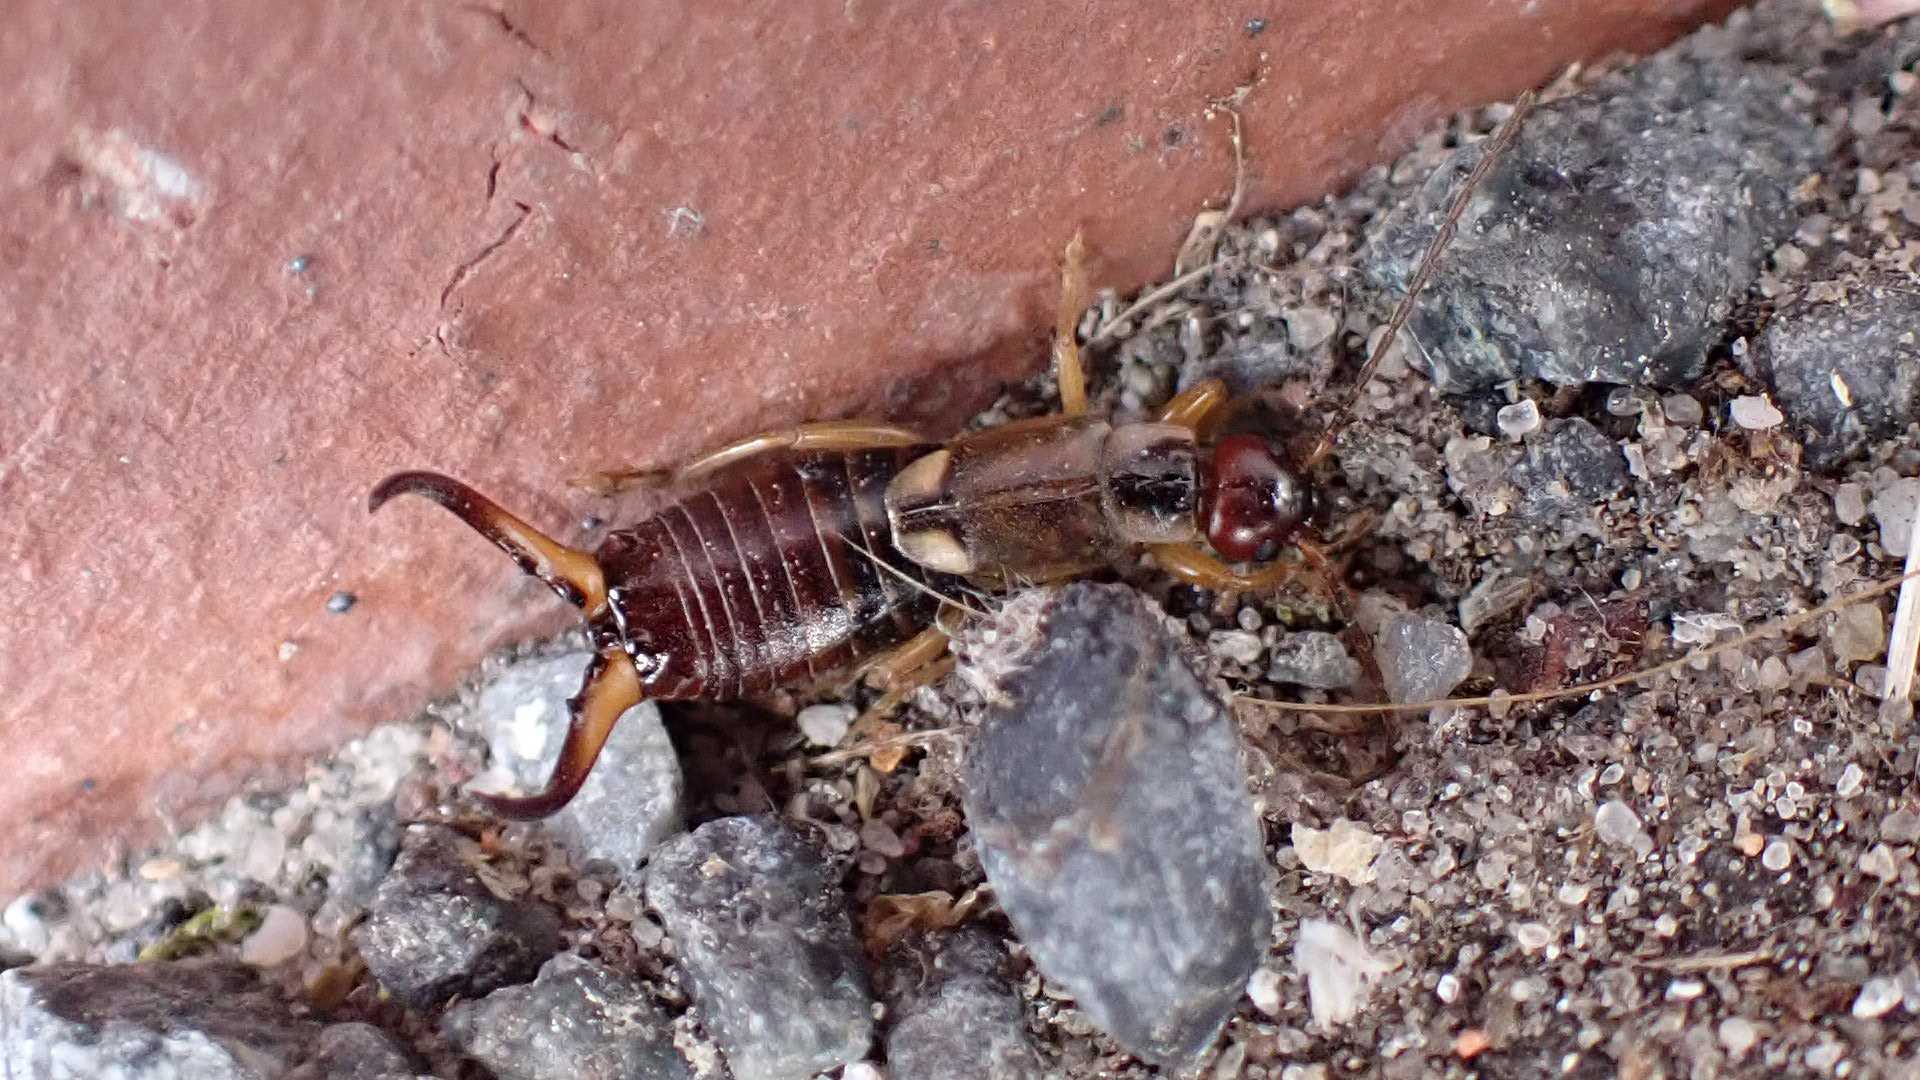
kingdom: Animalia
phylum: Arthropoda
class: Insecta
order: Dermaptera
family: Forficulidae
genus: Forficula
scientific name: Forficula
